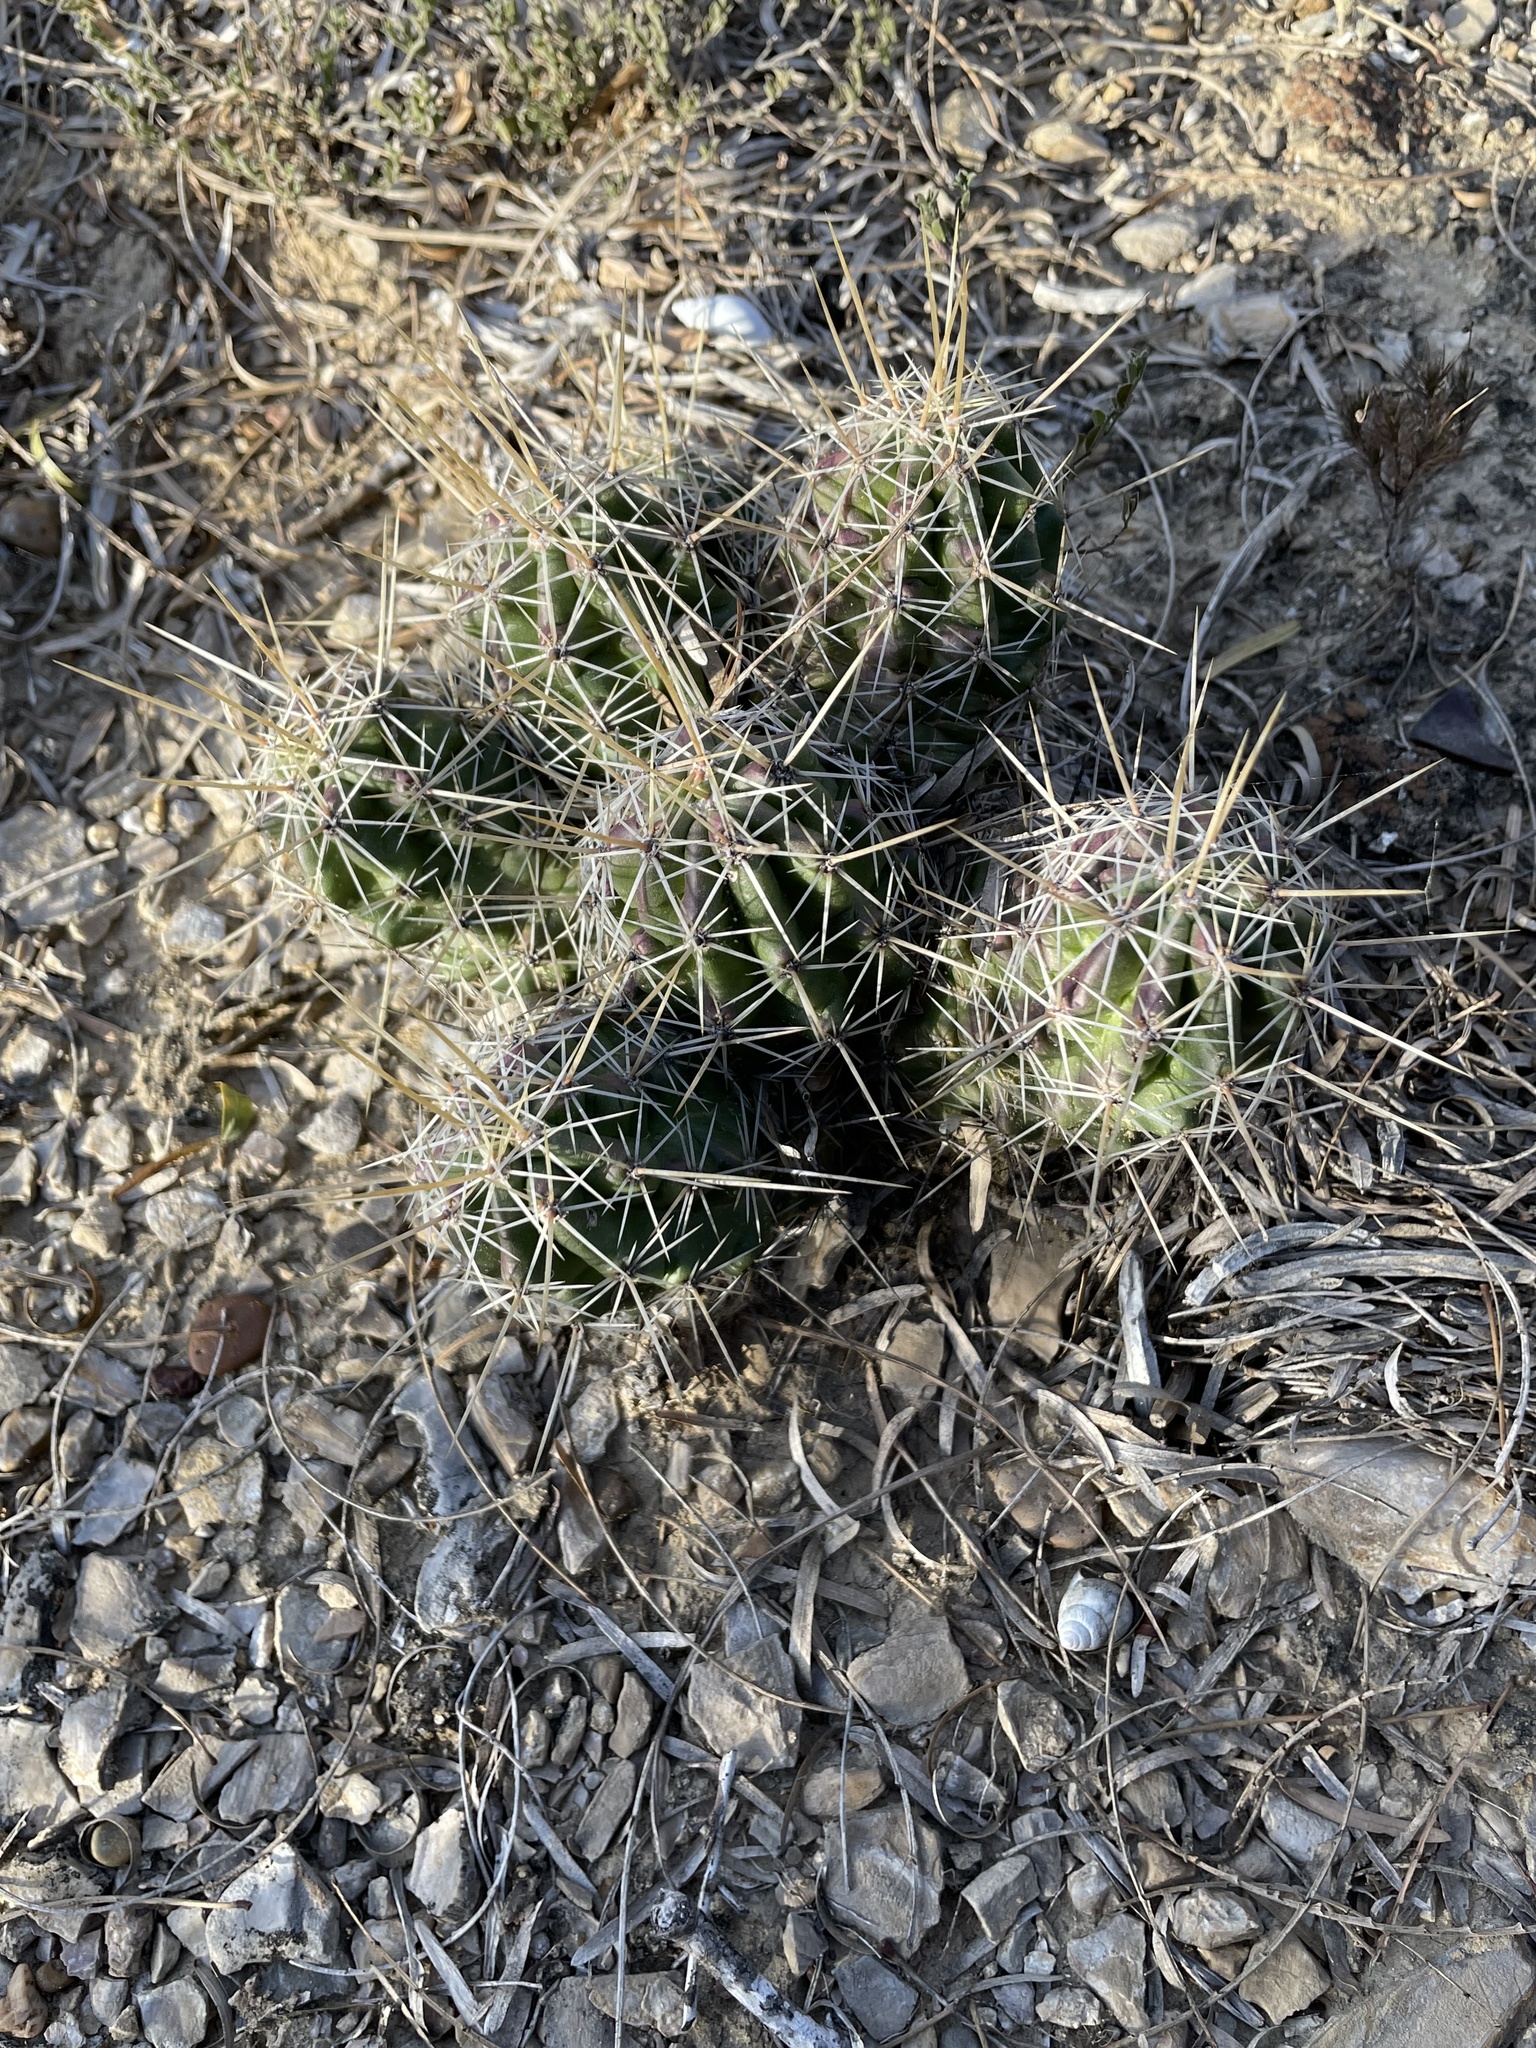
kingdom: Plantae
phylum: Tracheophyta
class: Magnoliopsida
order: Caryophyllales
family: Cactaceae
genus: Echinocereus
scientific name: Echinocereus enneacanthus
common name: Pitaya
